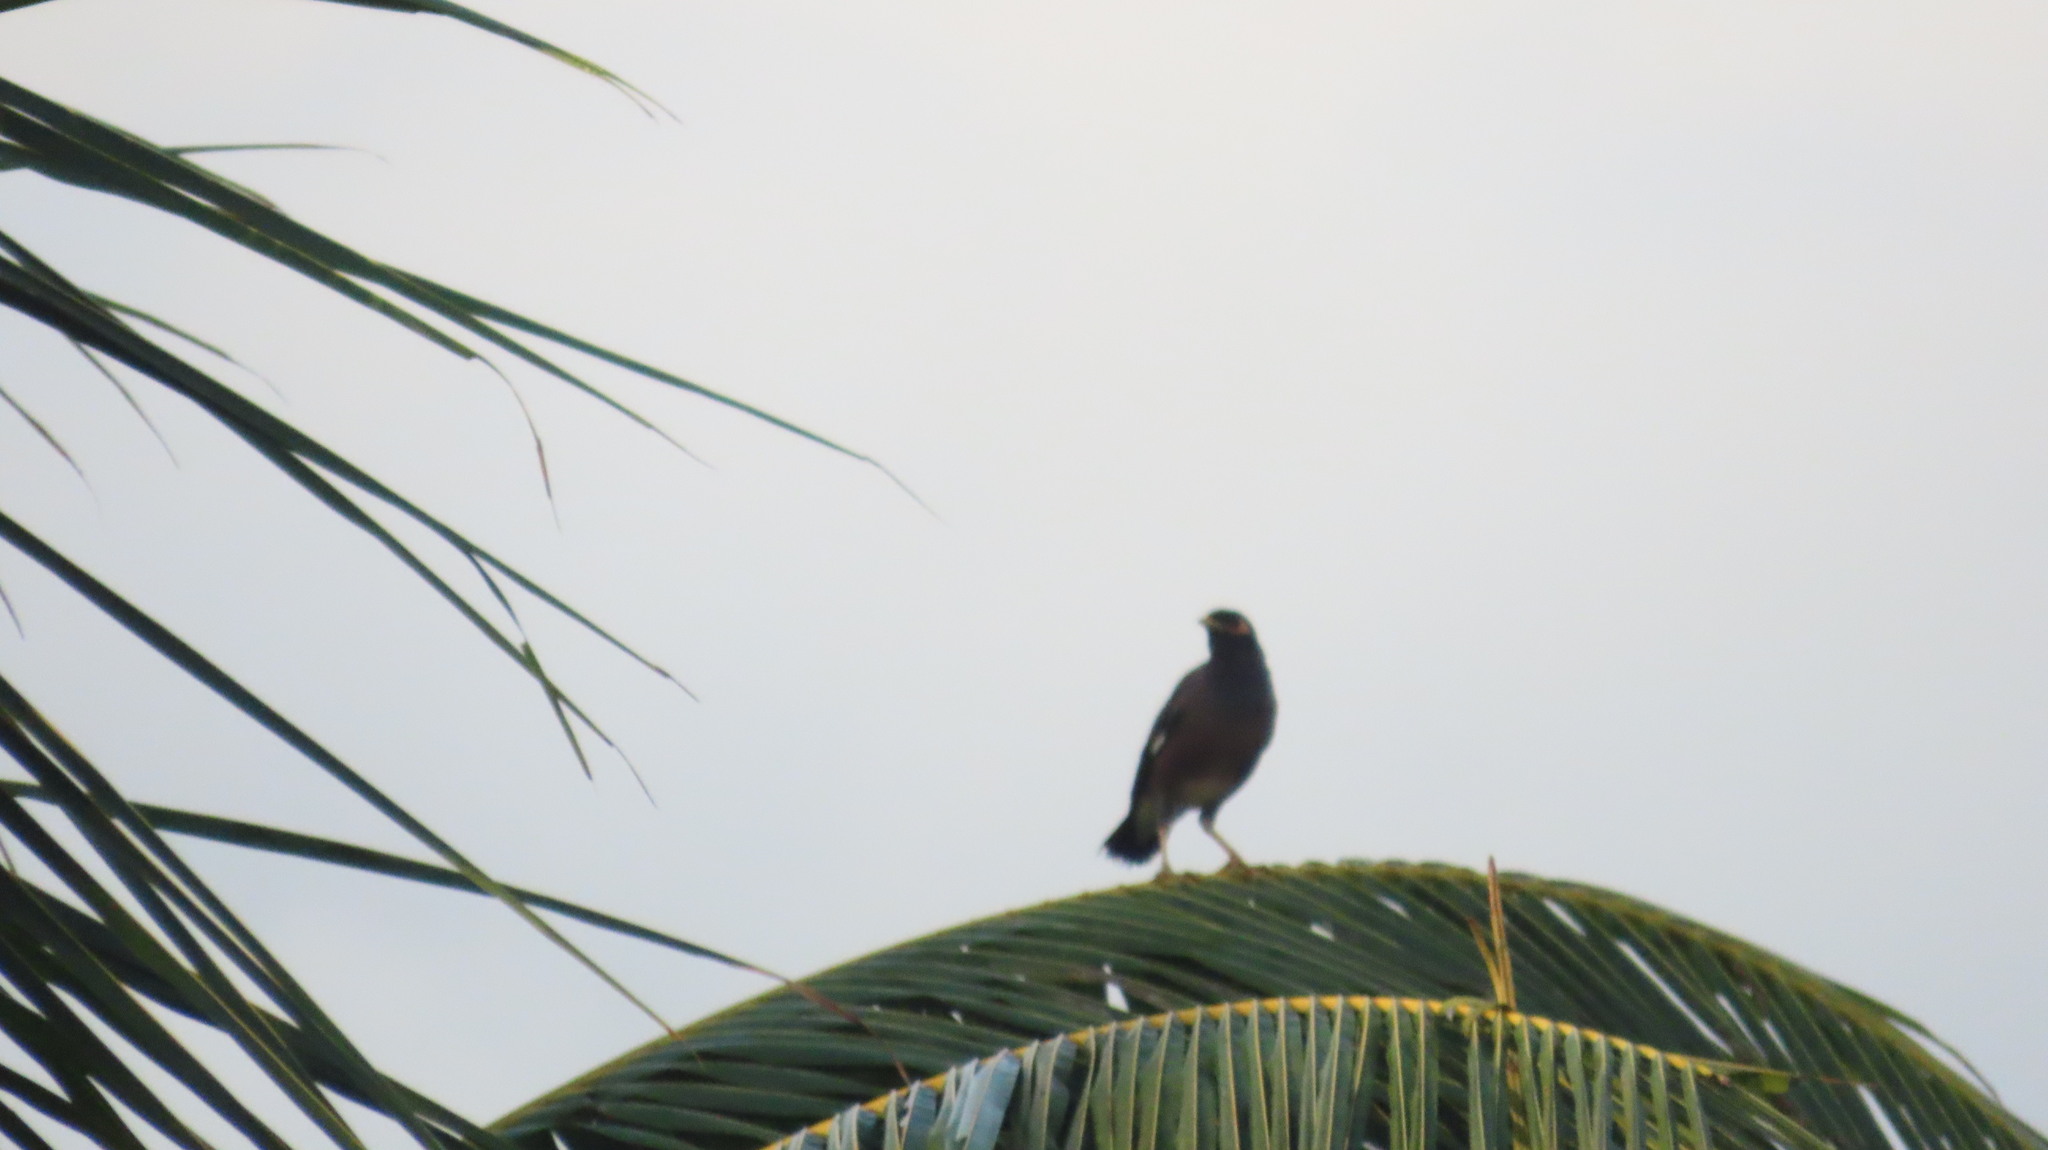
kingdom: Animalia
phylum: Chordata
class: Aves
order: Passeriformes
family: Sturnidae
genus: Acridotheres
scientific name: Acridotheres tristis
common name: Common myna
